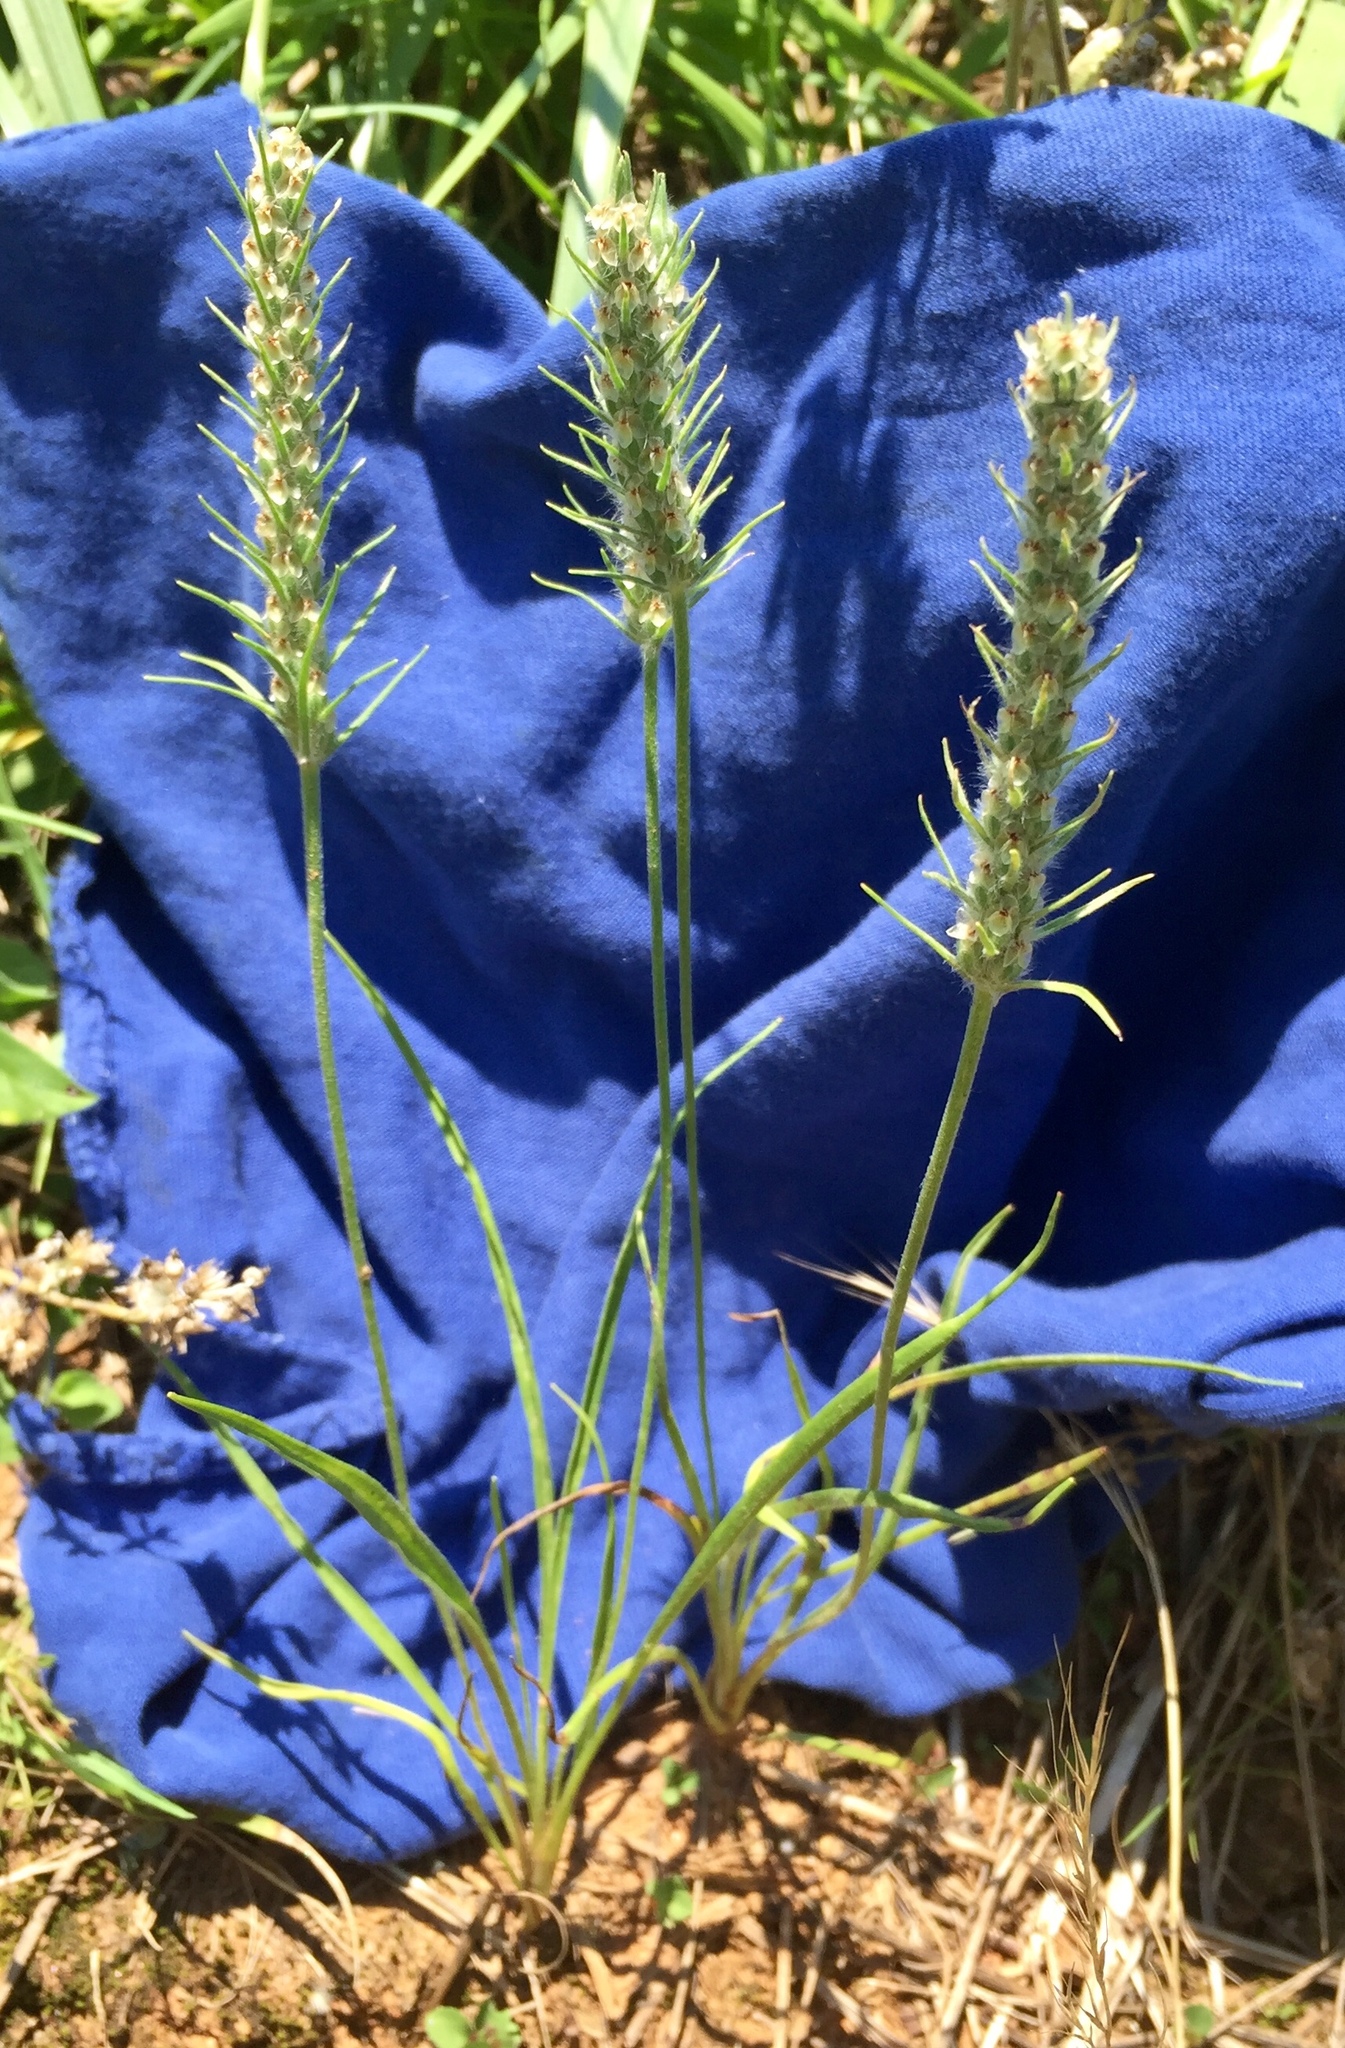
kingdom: Plantae
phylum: Tracheophyta
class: Magnoliopsida
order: Lamiales
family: Plantaginaceae
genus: Plantago
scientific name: Plantago aristata
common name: Bracted plantain
